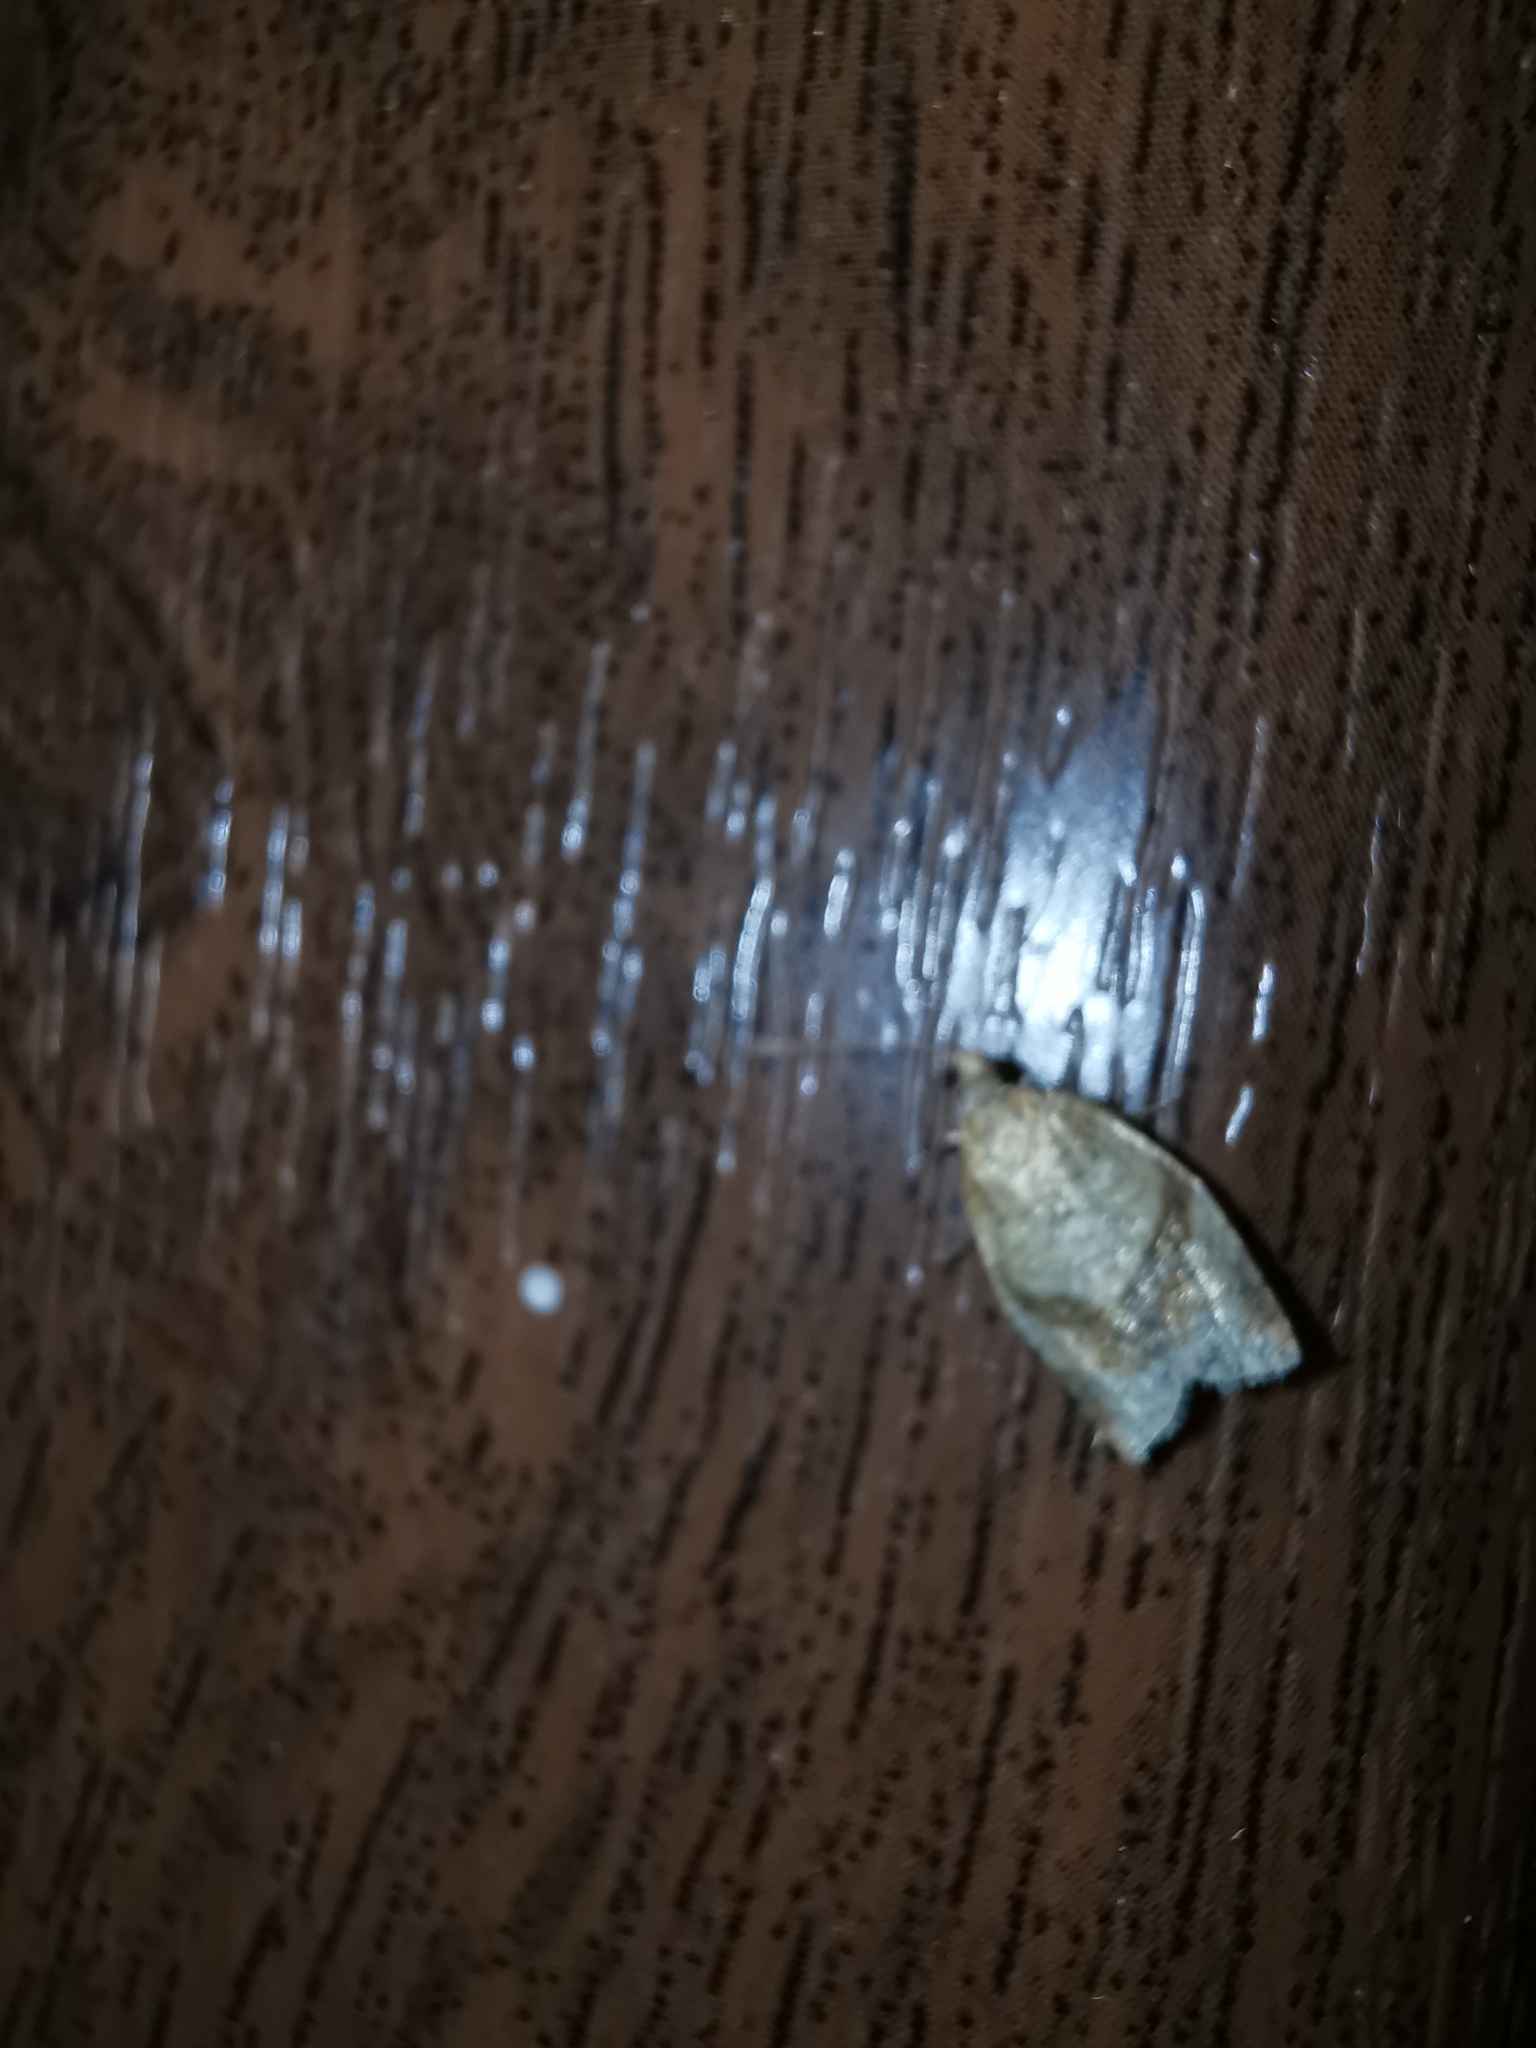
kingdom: Animalia
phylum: Arthropoda
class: Insecta
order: Lepidoptera
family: Tortricidae
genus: Clepsis
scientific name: Clepsis consimilana
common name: Privet tortrix
